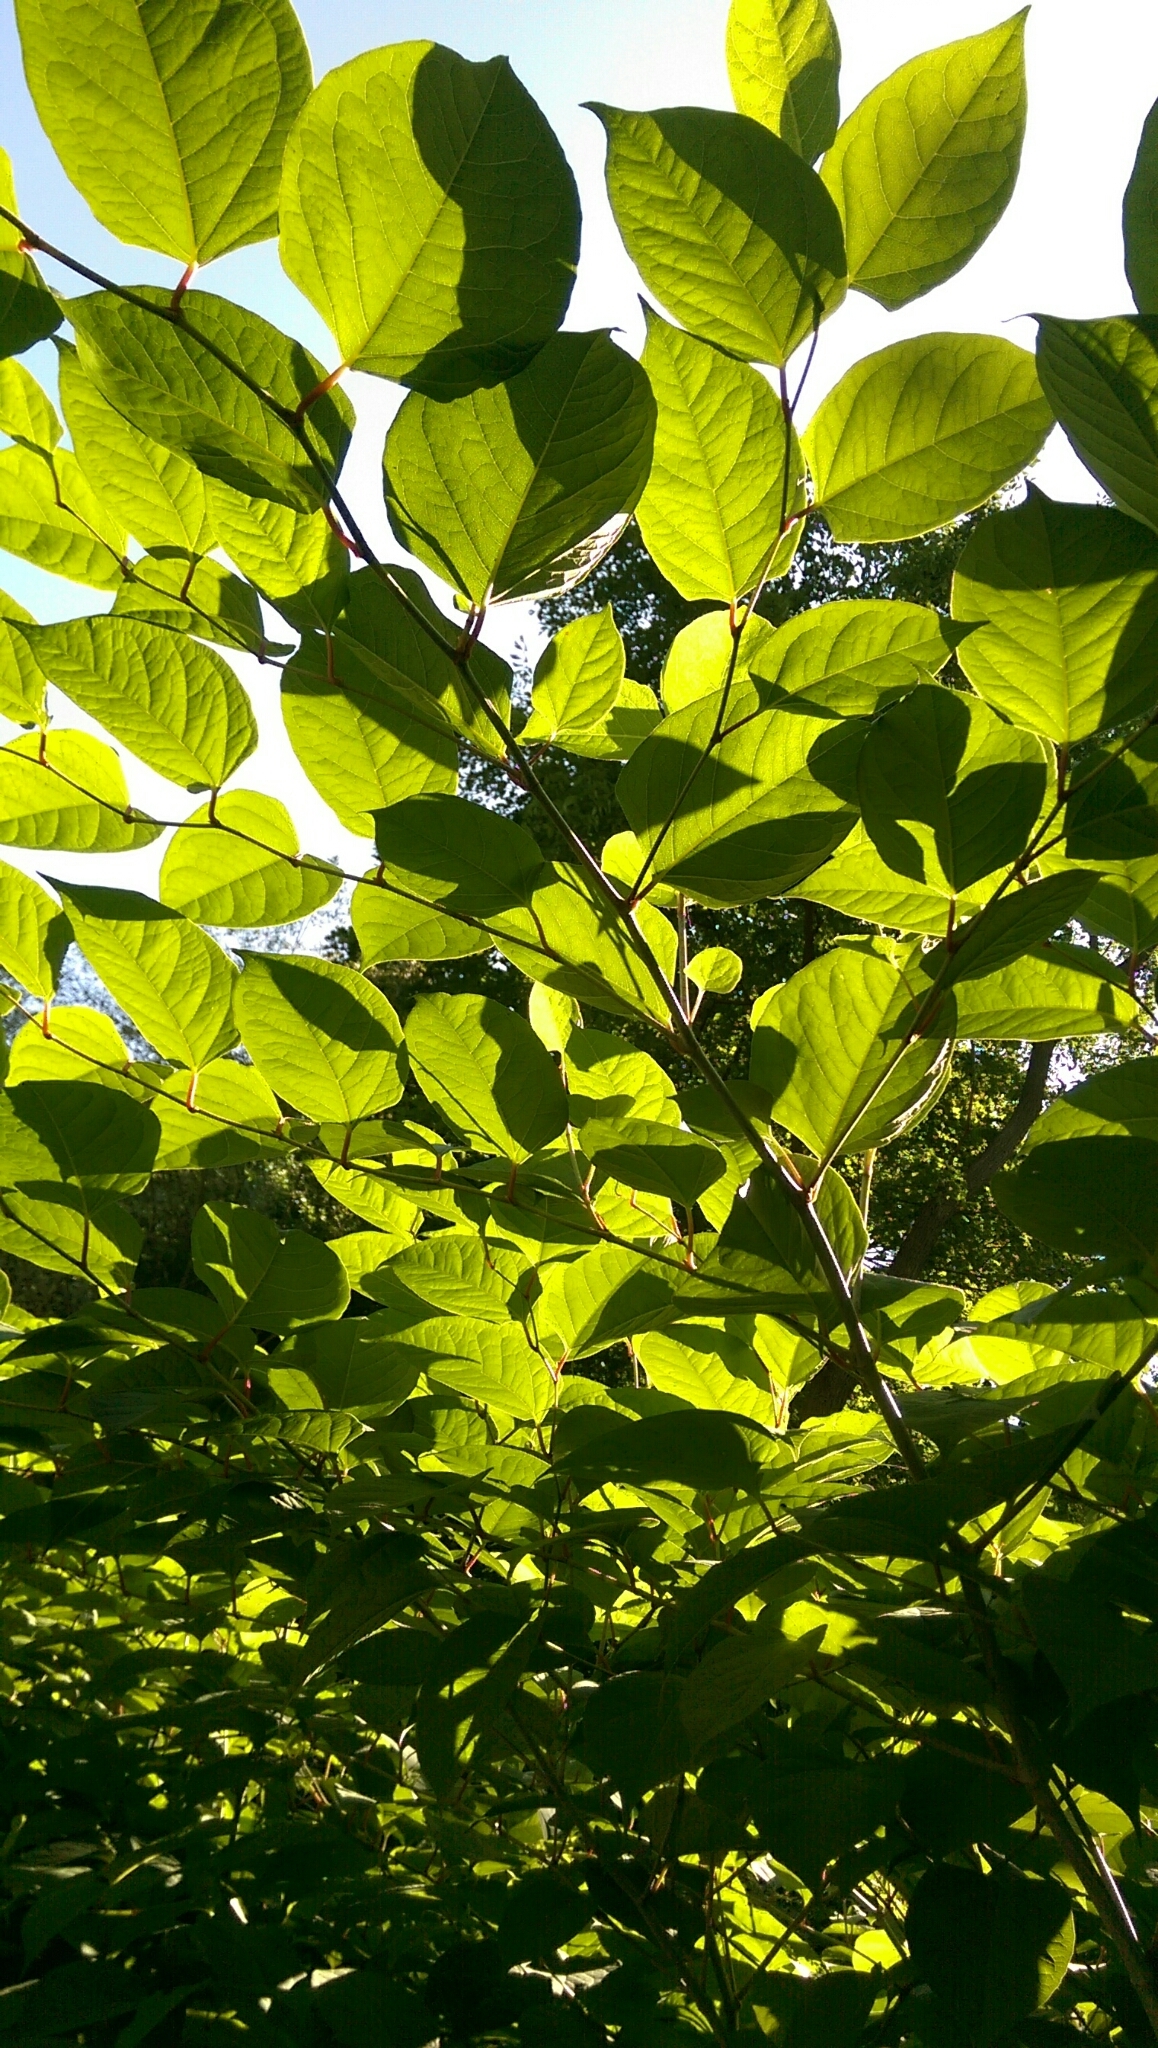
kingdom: Plantae
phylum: Tracheophyta
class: Magnoliopsida
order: Caryophyllales
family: Polygonaceae
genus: Reynoutria
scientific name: Reynoutria japonica
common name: Japanese knotweed
